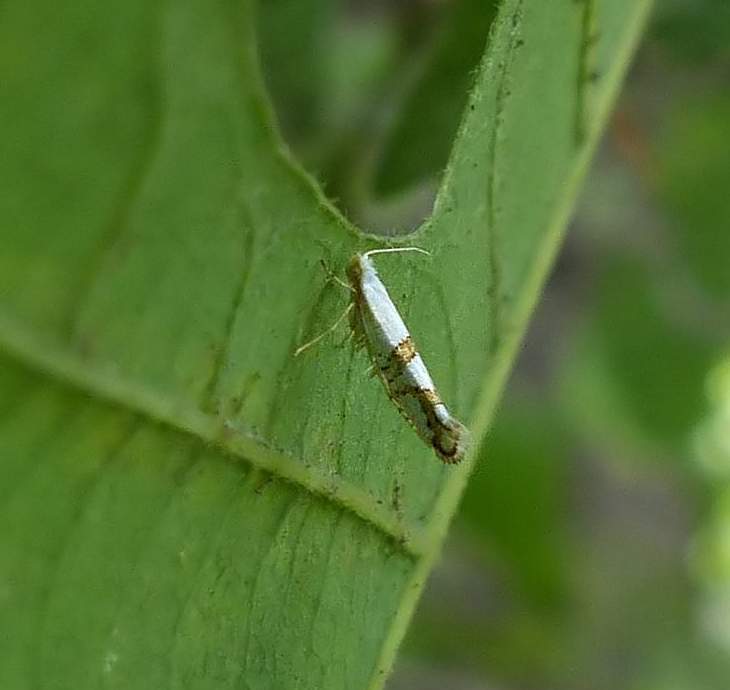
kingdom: Animalia
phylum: Arthropoda
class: Insecta
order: Lepidoptera
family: Argyresthiidae
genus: Argyresthia
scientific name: Argyresthia oreasella
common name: Cherry shoot borer moth
